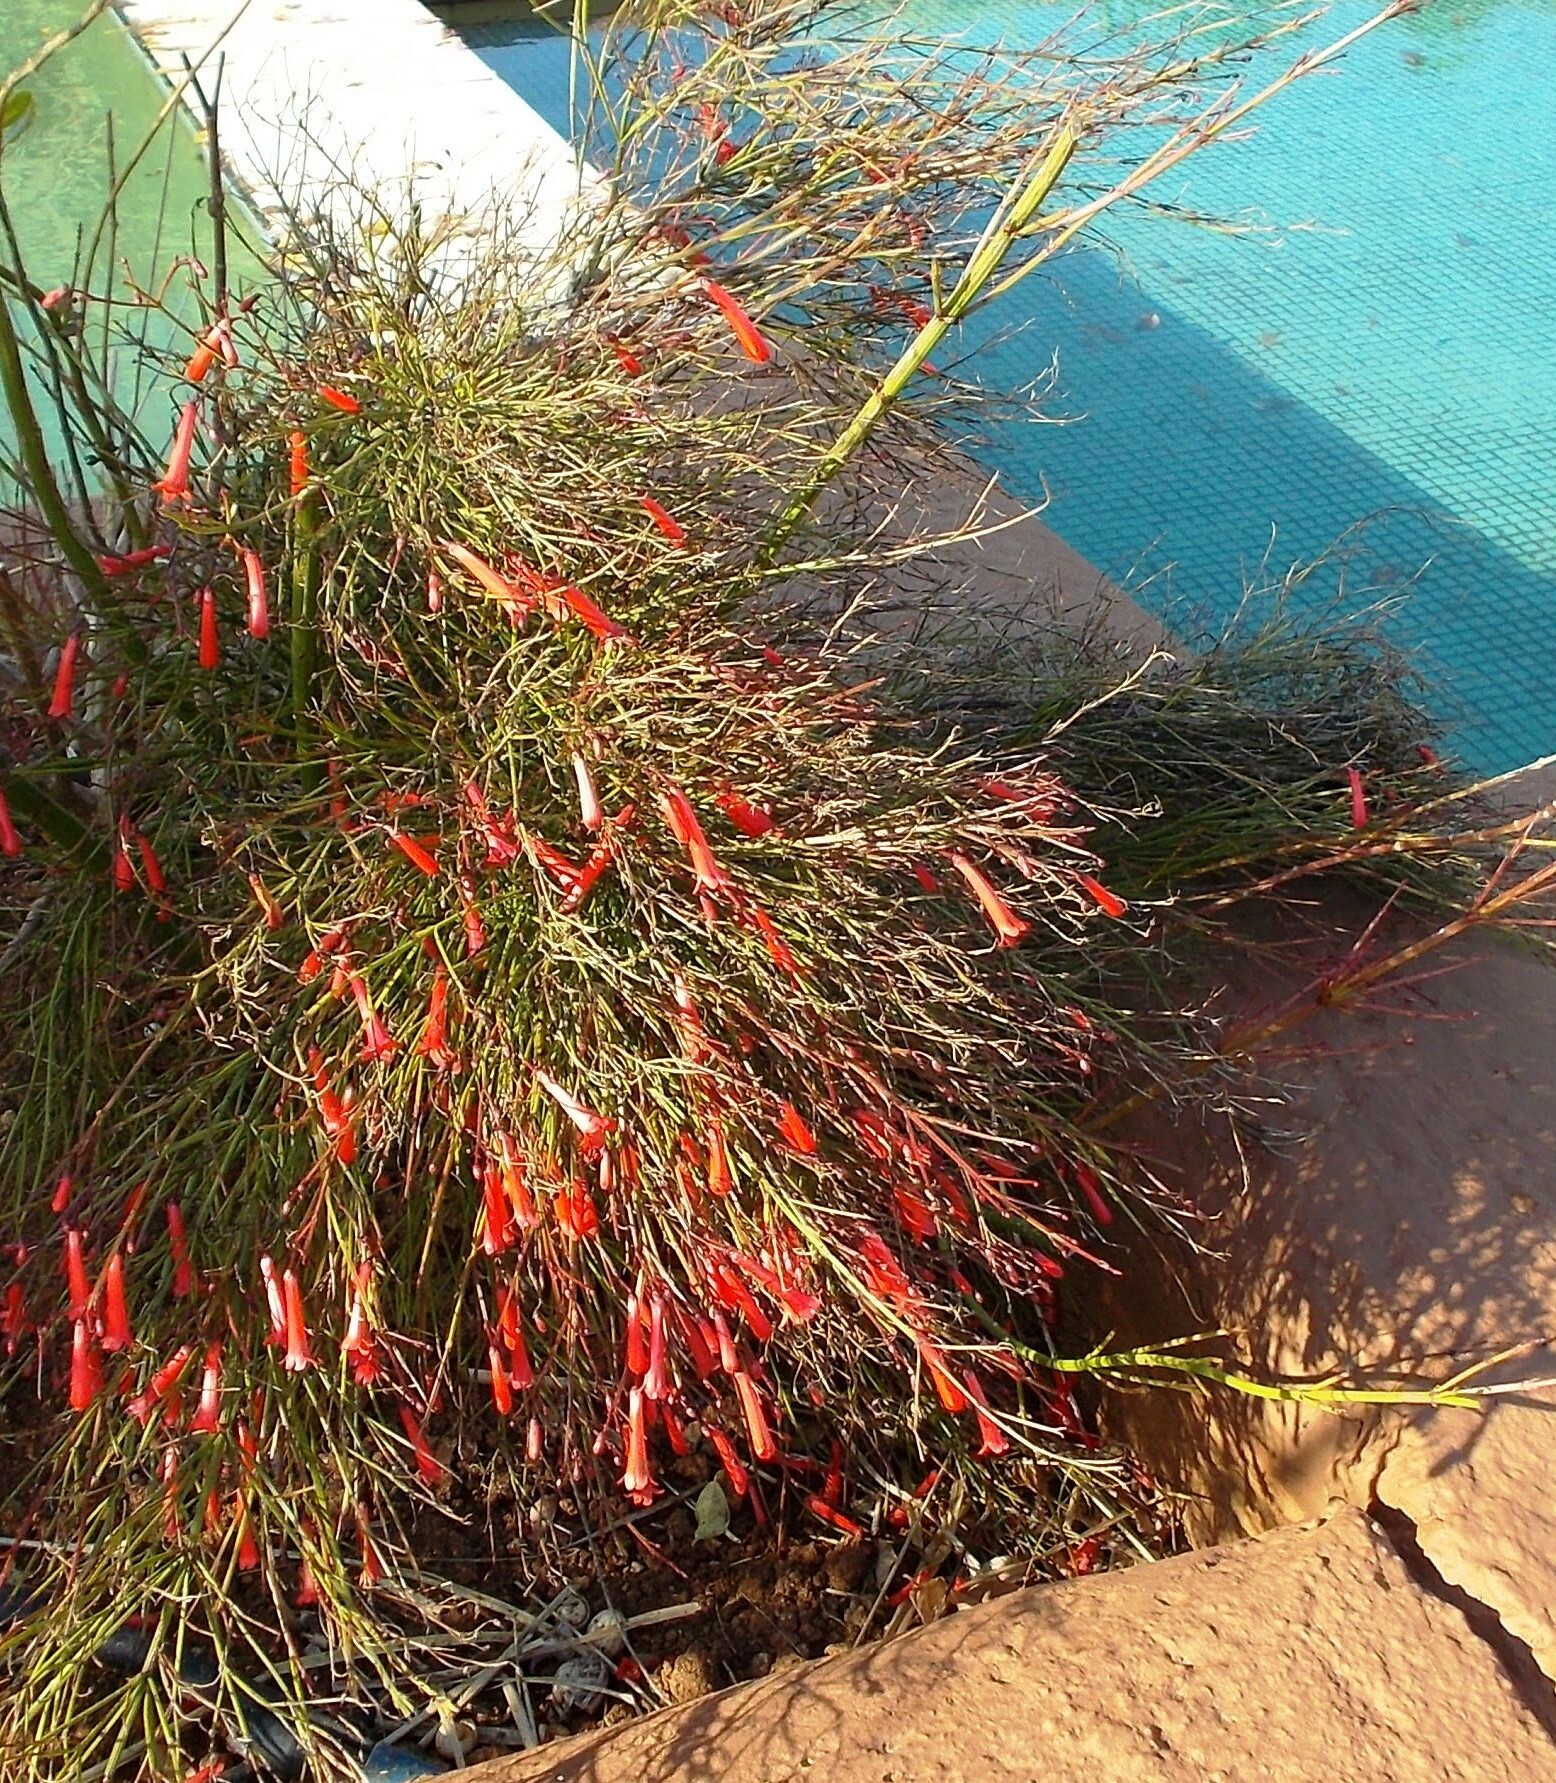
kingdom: Plantae
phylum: Tracheophyta
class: Magnoliopsida
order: Lamiales
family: Plantaginaceae
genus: Russelia
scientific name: Russelia equisetiformis
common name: Fountainbush
